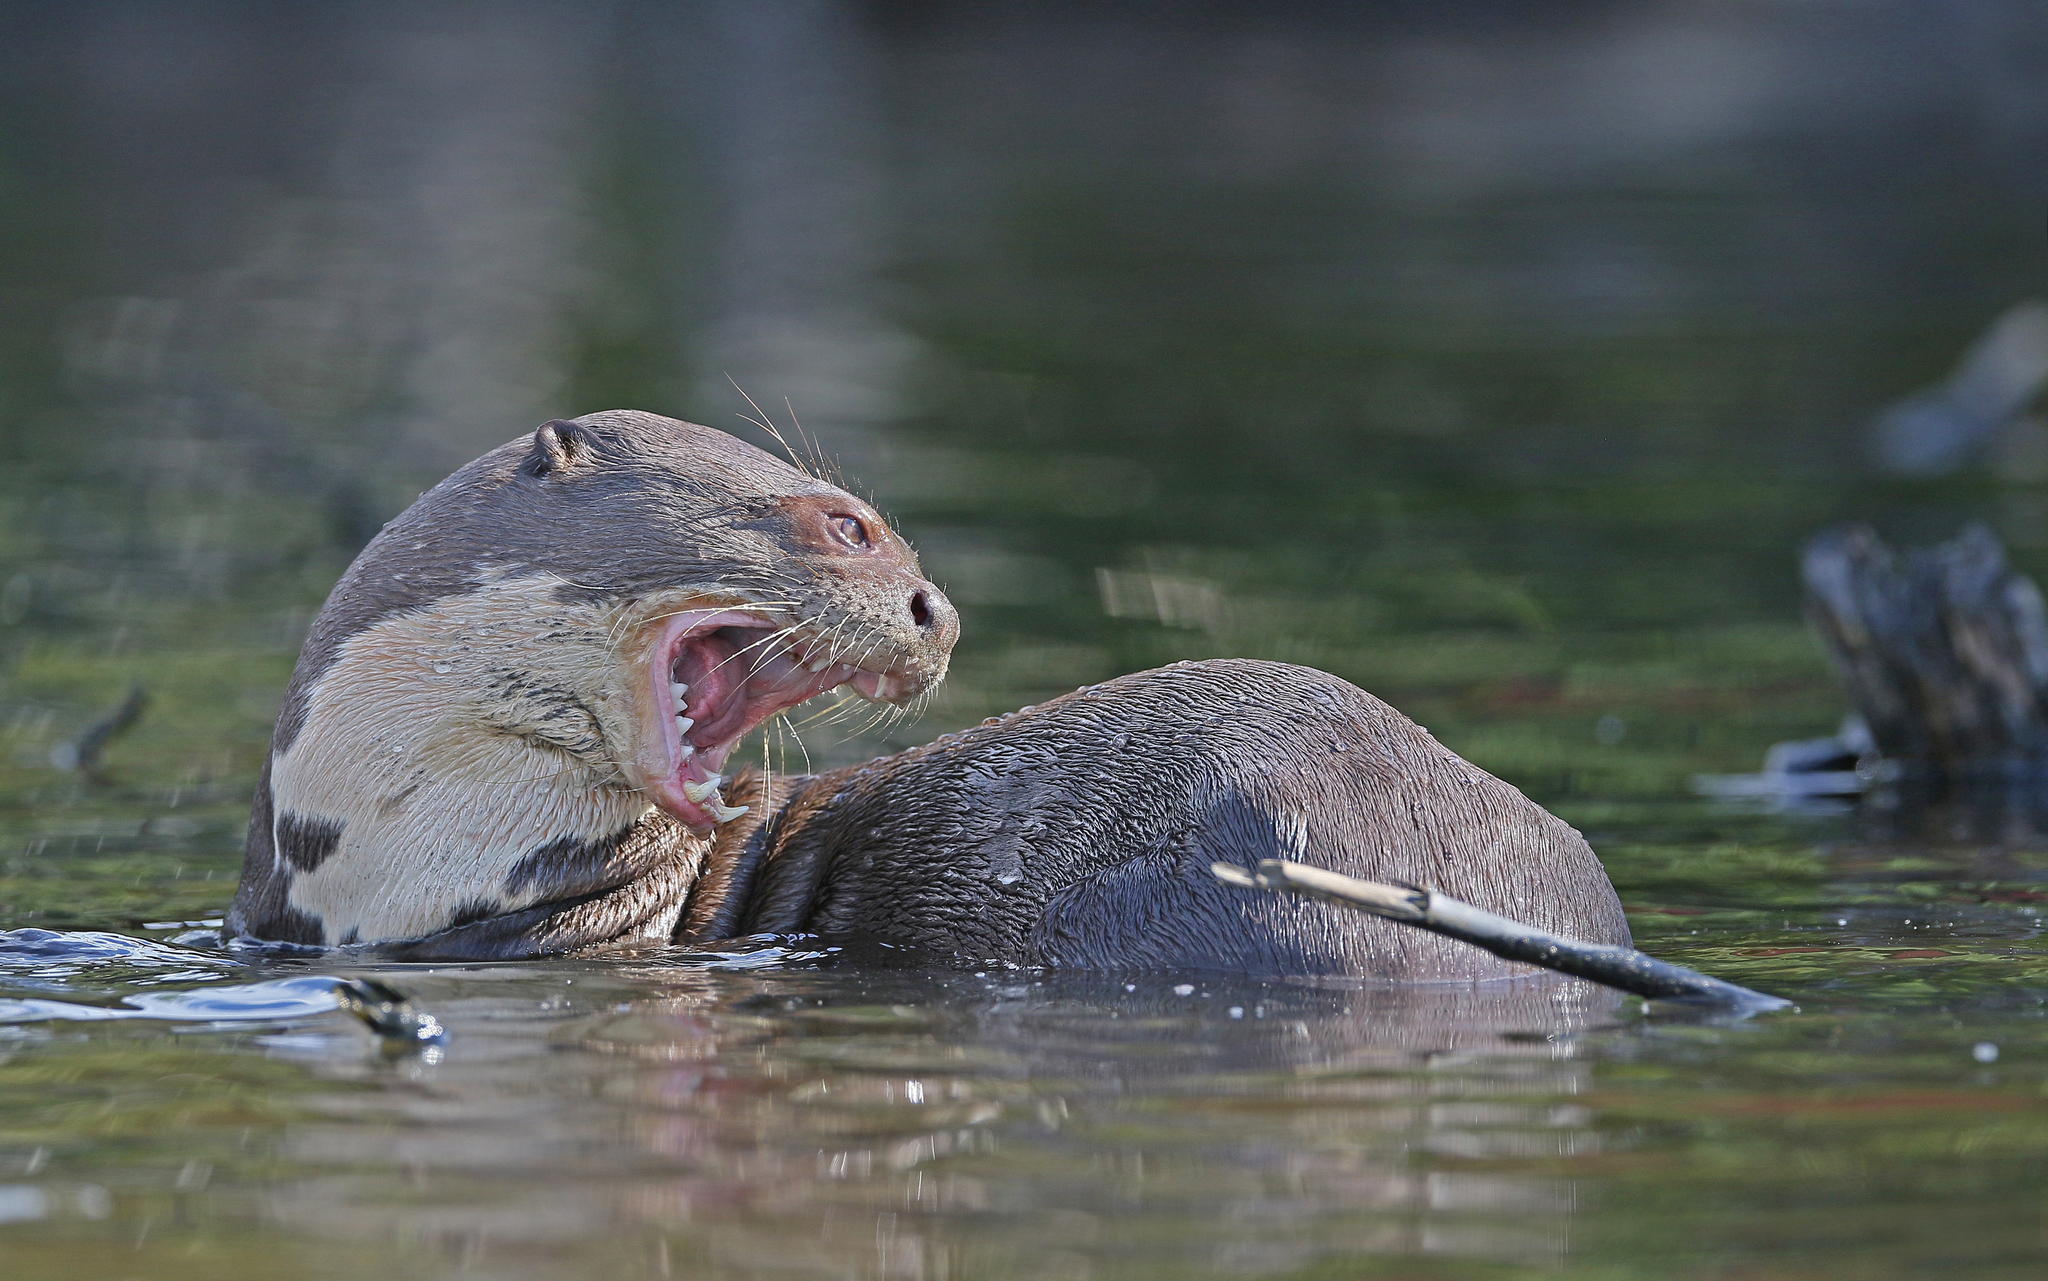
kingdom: Animalia
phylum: Chordata
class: Mammalia
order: Carnivora
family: Mustelidae
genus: Pteronura
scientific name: Pteronura brasiliensis
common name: Giant otter
